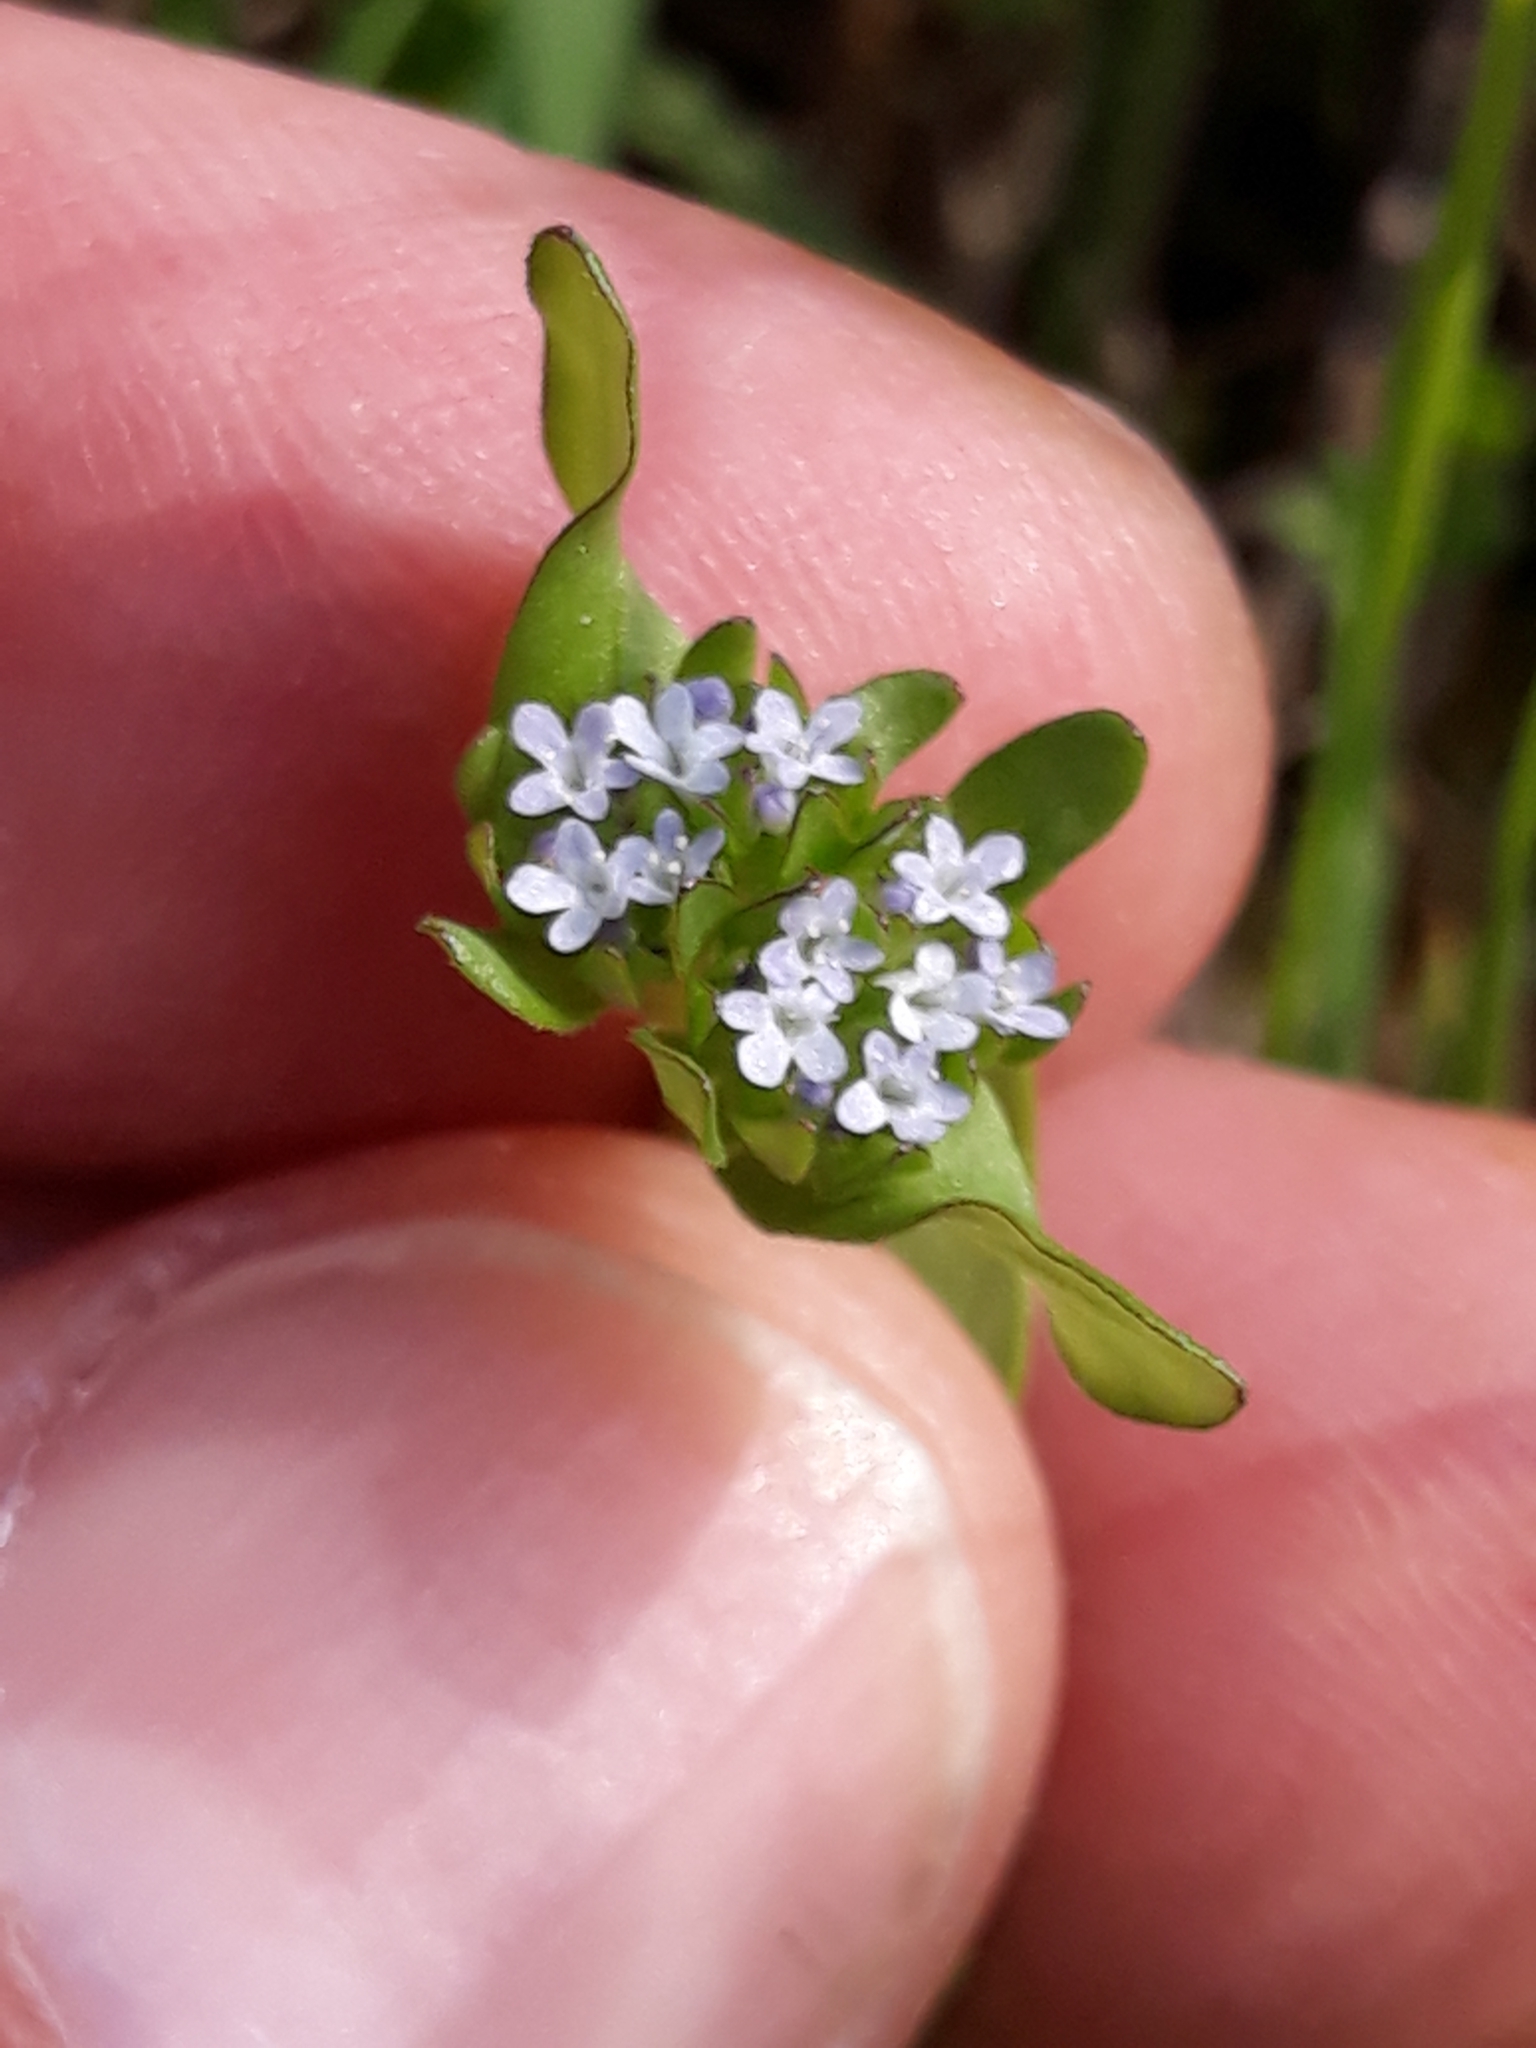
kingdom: Plantae
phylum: Tracheophyta
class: Magnoliopsida
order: Dipsacales
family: Caprifoliaceae
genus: Valerianella
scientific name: Valerianella locusta
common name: Common cornsalad
